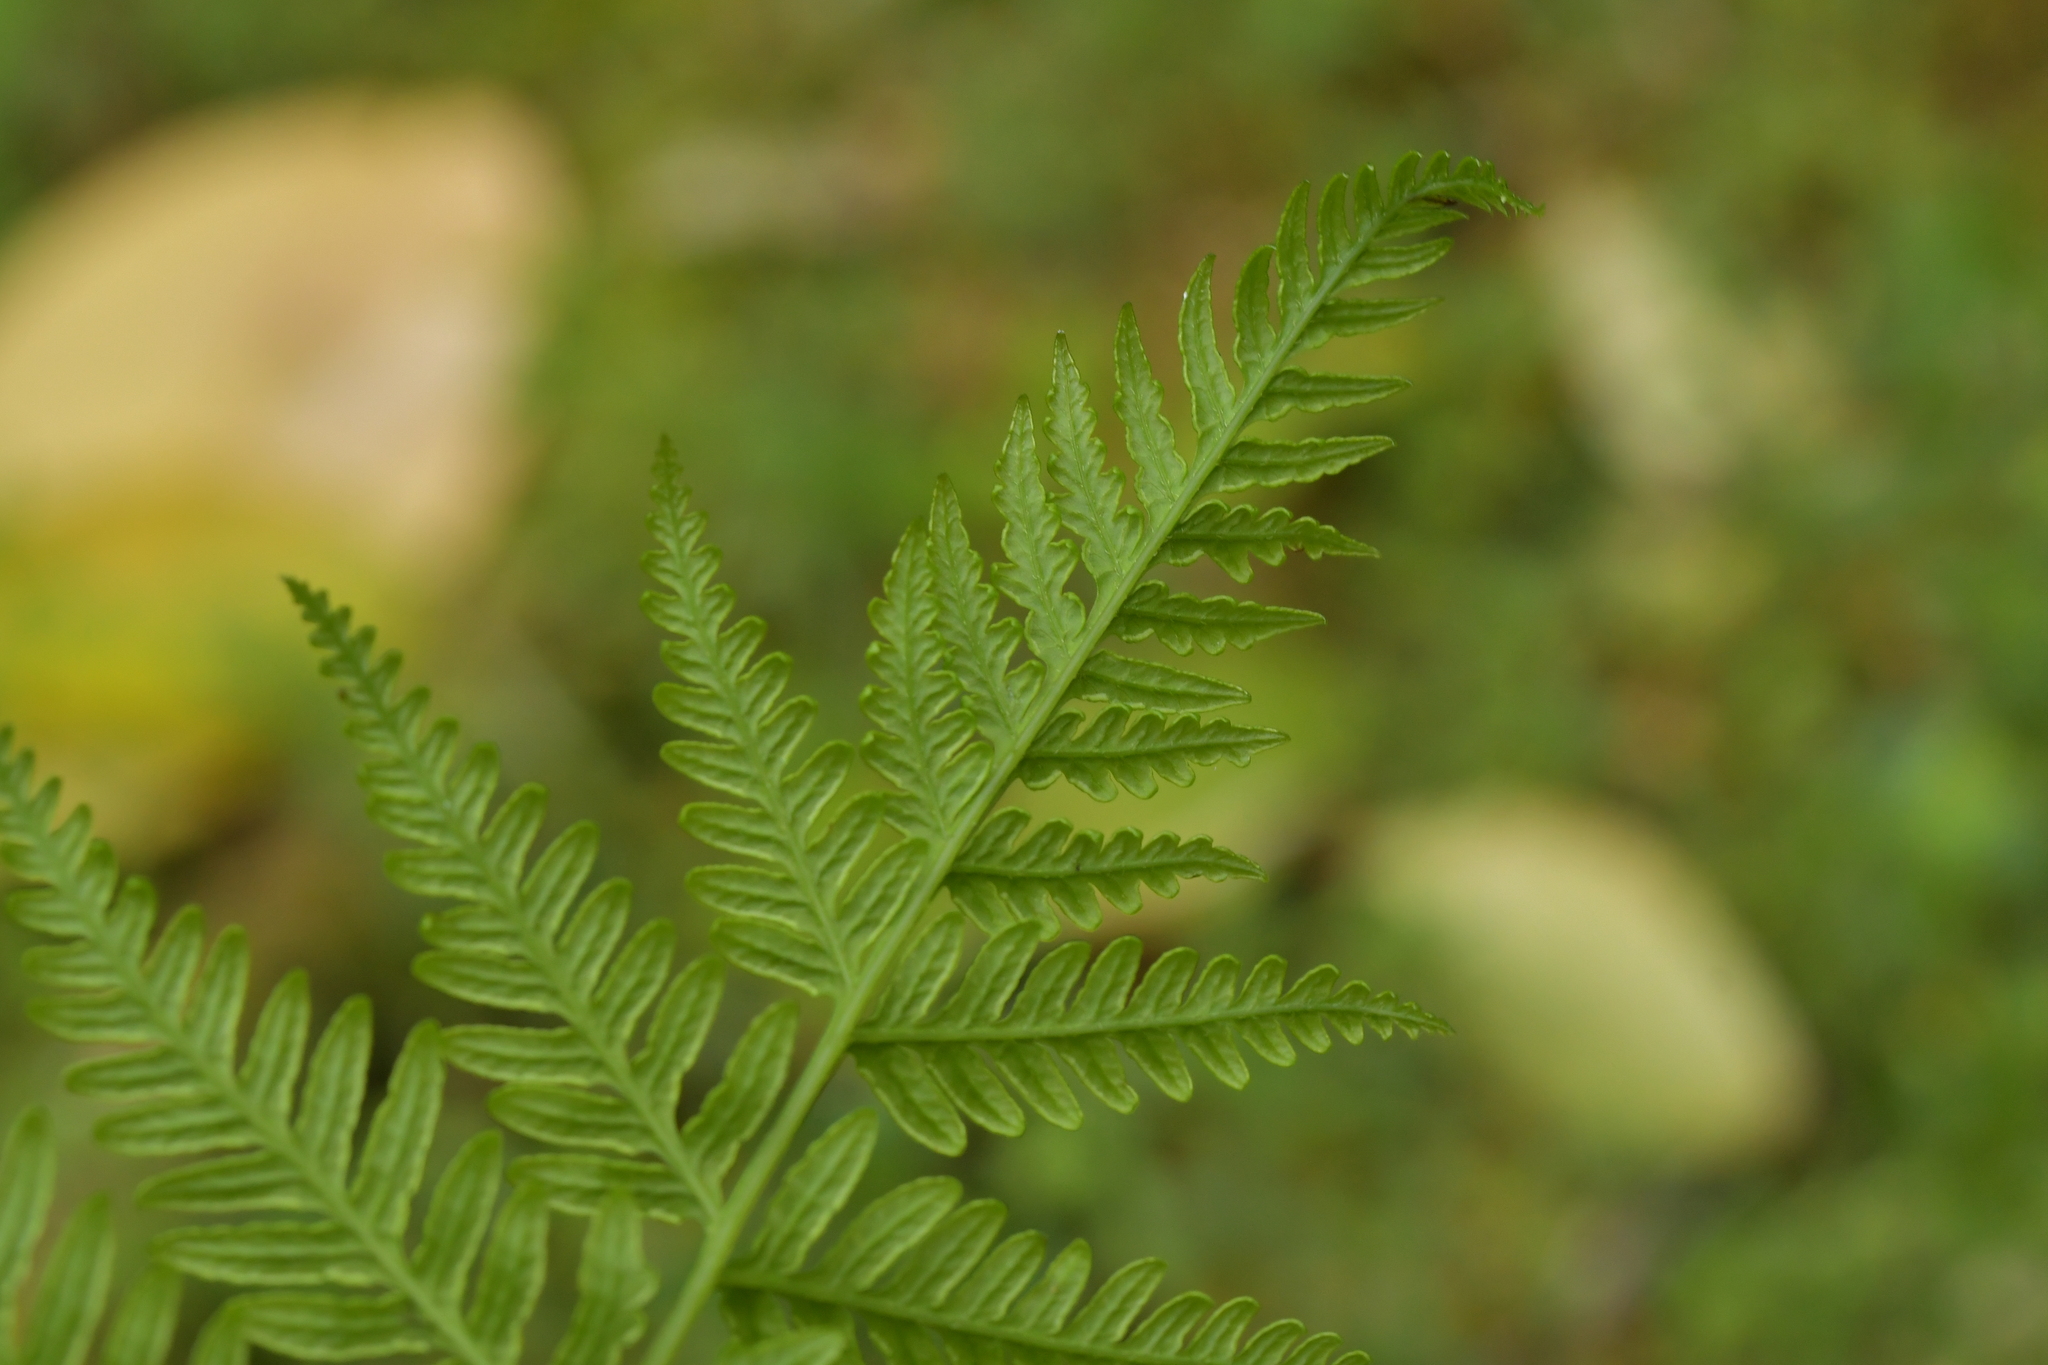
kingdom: Plantae
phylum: Tracheophyta
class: Polypodiopsida
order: Polypodiales
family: Pteridaceae
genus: Pteris
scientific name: Pteris tremula
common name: Australian brake
